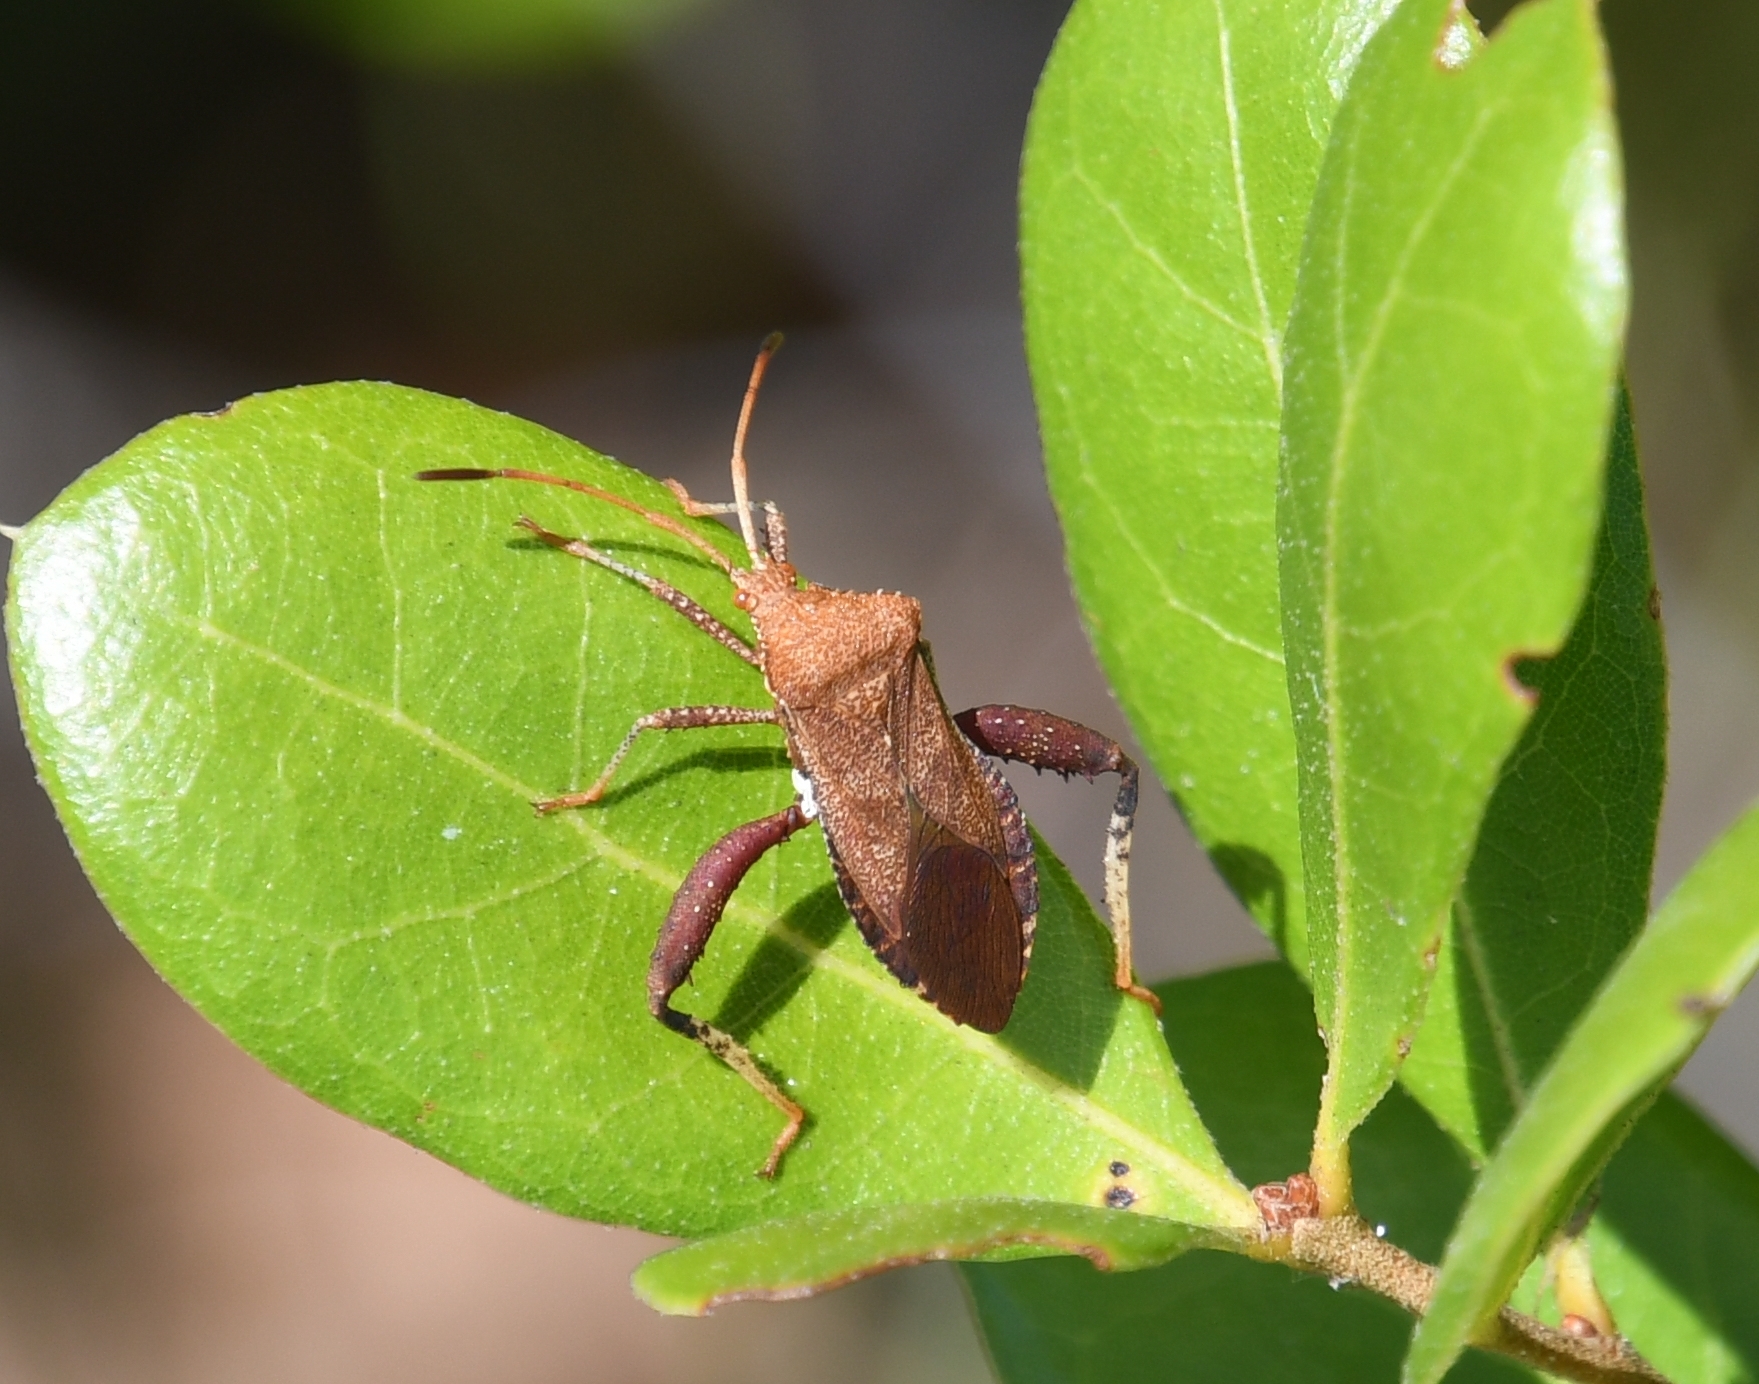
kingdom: Animalia
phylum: Arthropoda
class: Insecta
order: Hemiptera
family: Coreidae
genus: Euthochtha
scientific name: Euthochtha galeator
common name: Helmeted squash bug
